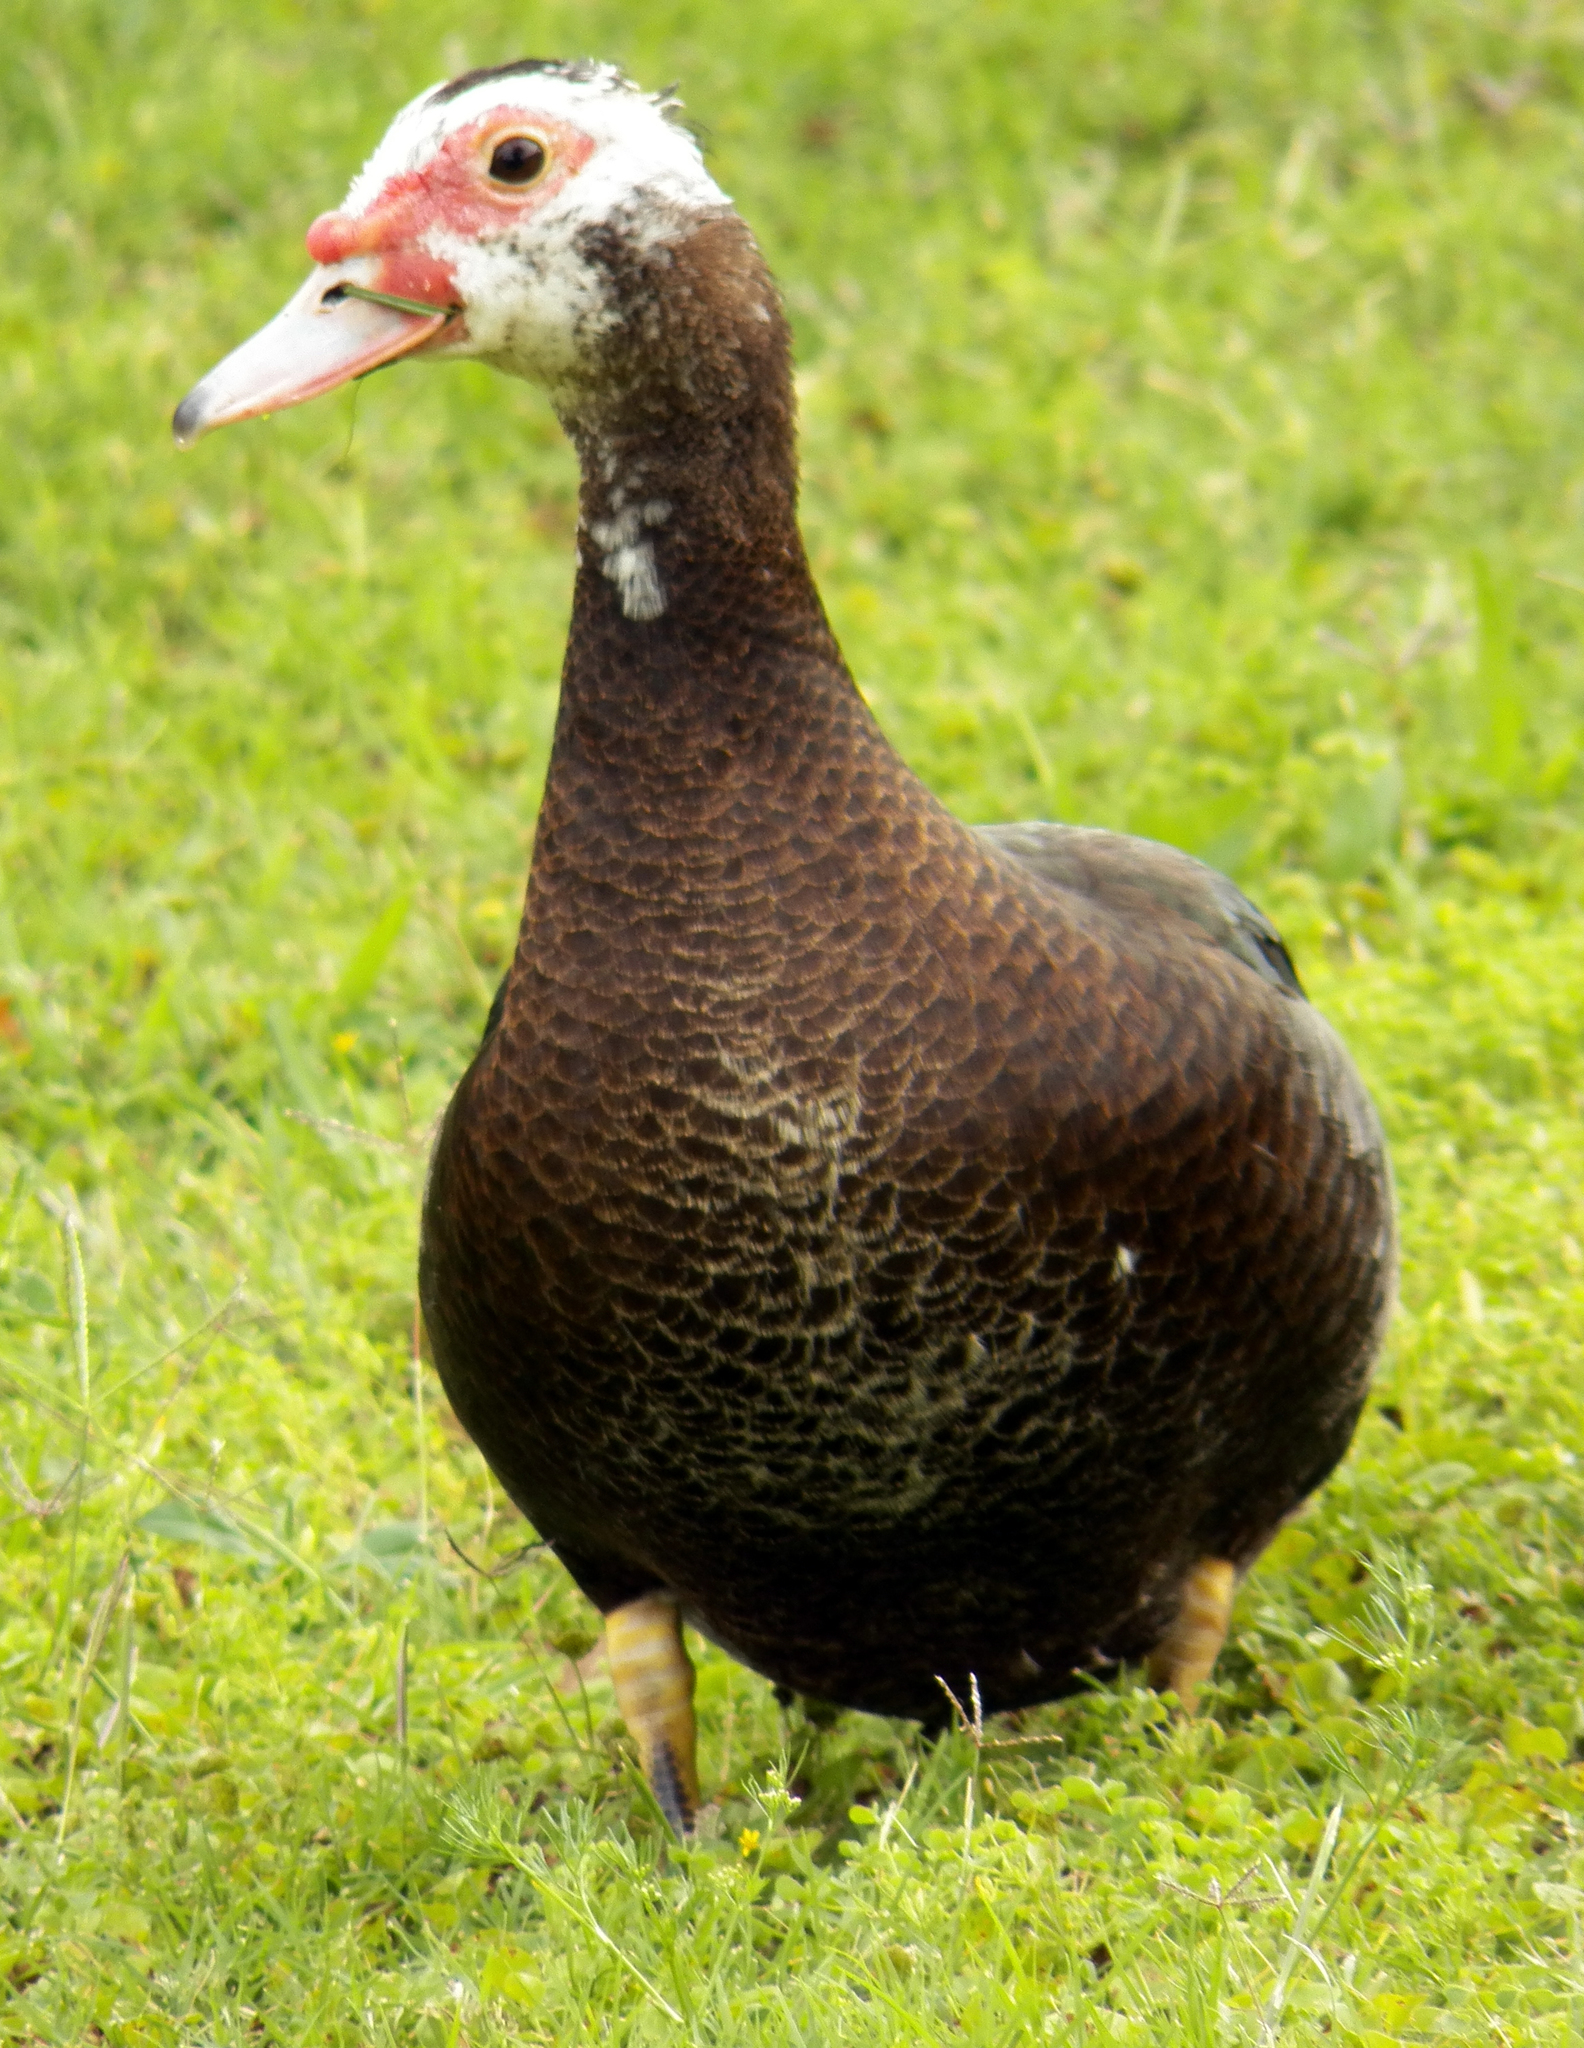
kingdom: Animalia
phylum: Chordata
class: Aves
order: Anseriformes
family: Anatidae
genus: Cairina
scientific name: Cairina moschata
